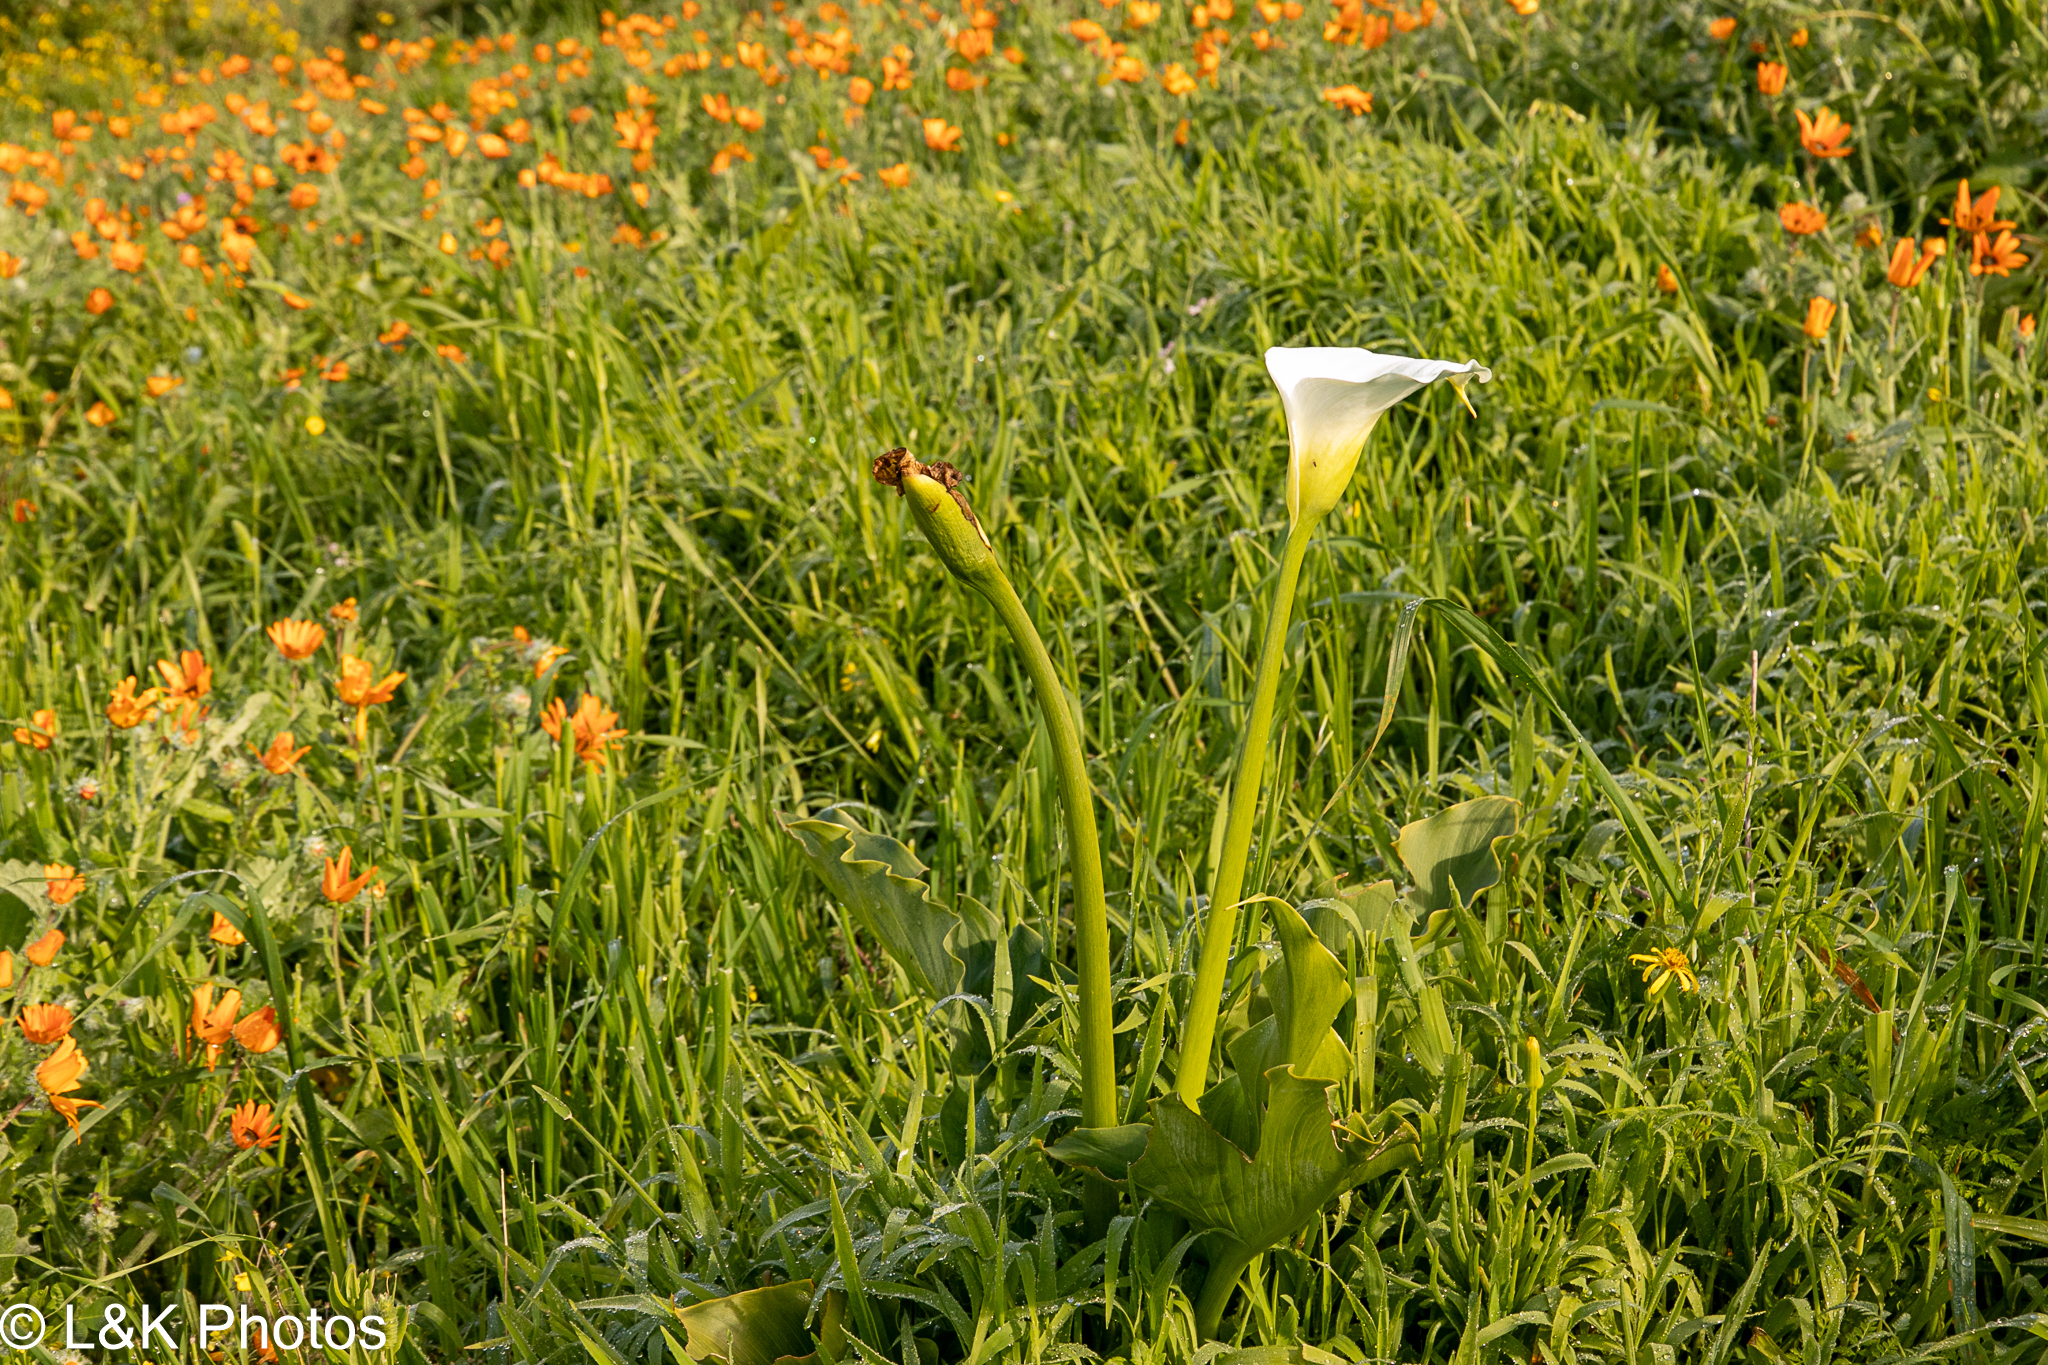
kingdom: Plantae
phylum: Tracheophyta
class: Liliopsida
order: Alismatales
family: Araceae
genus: Zantedeschia
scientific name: Zantedeschia aethiopica
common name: Altar-lily
